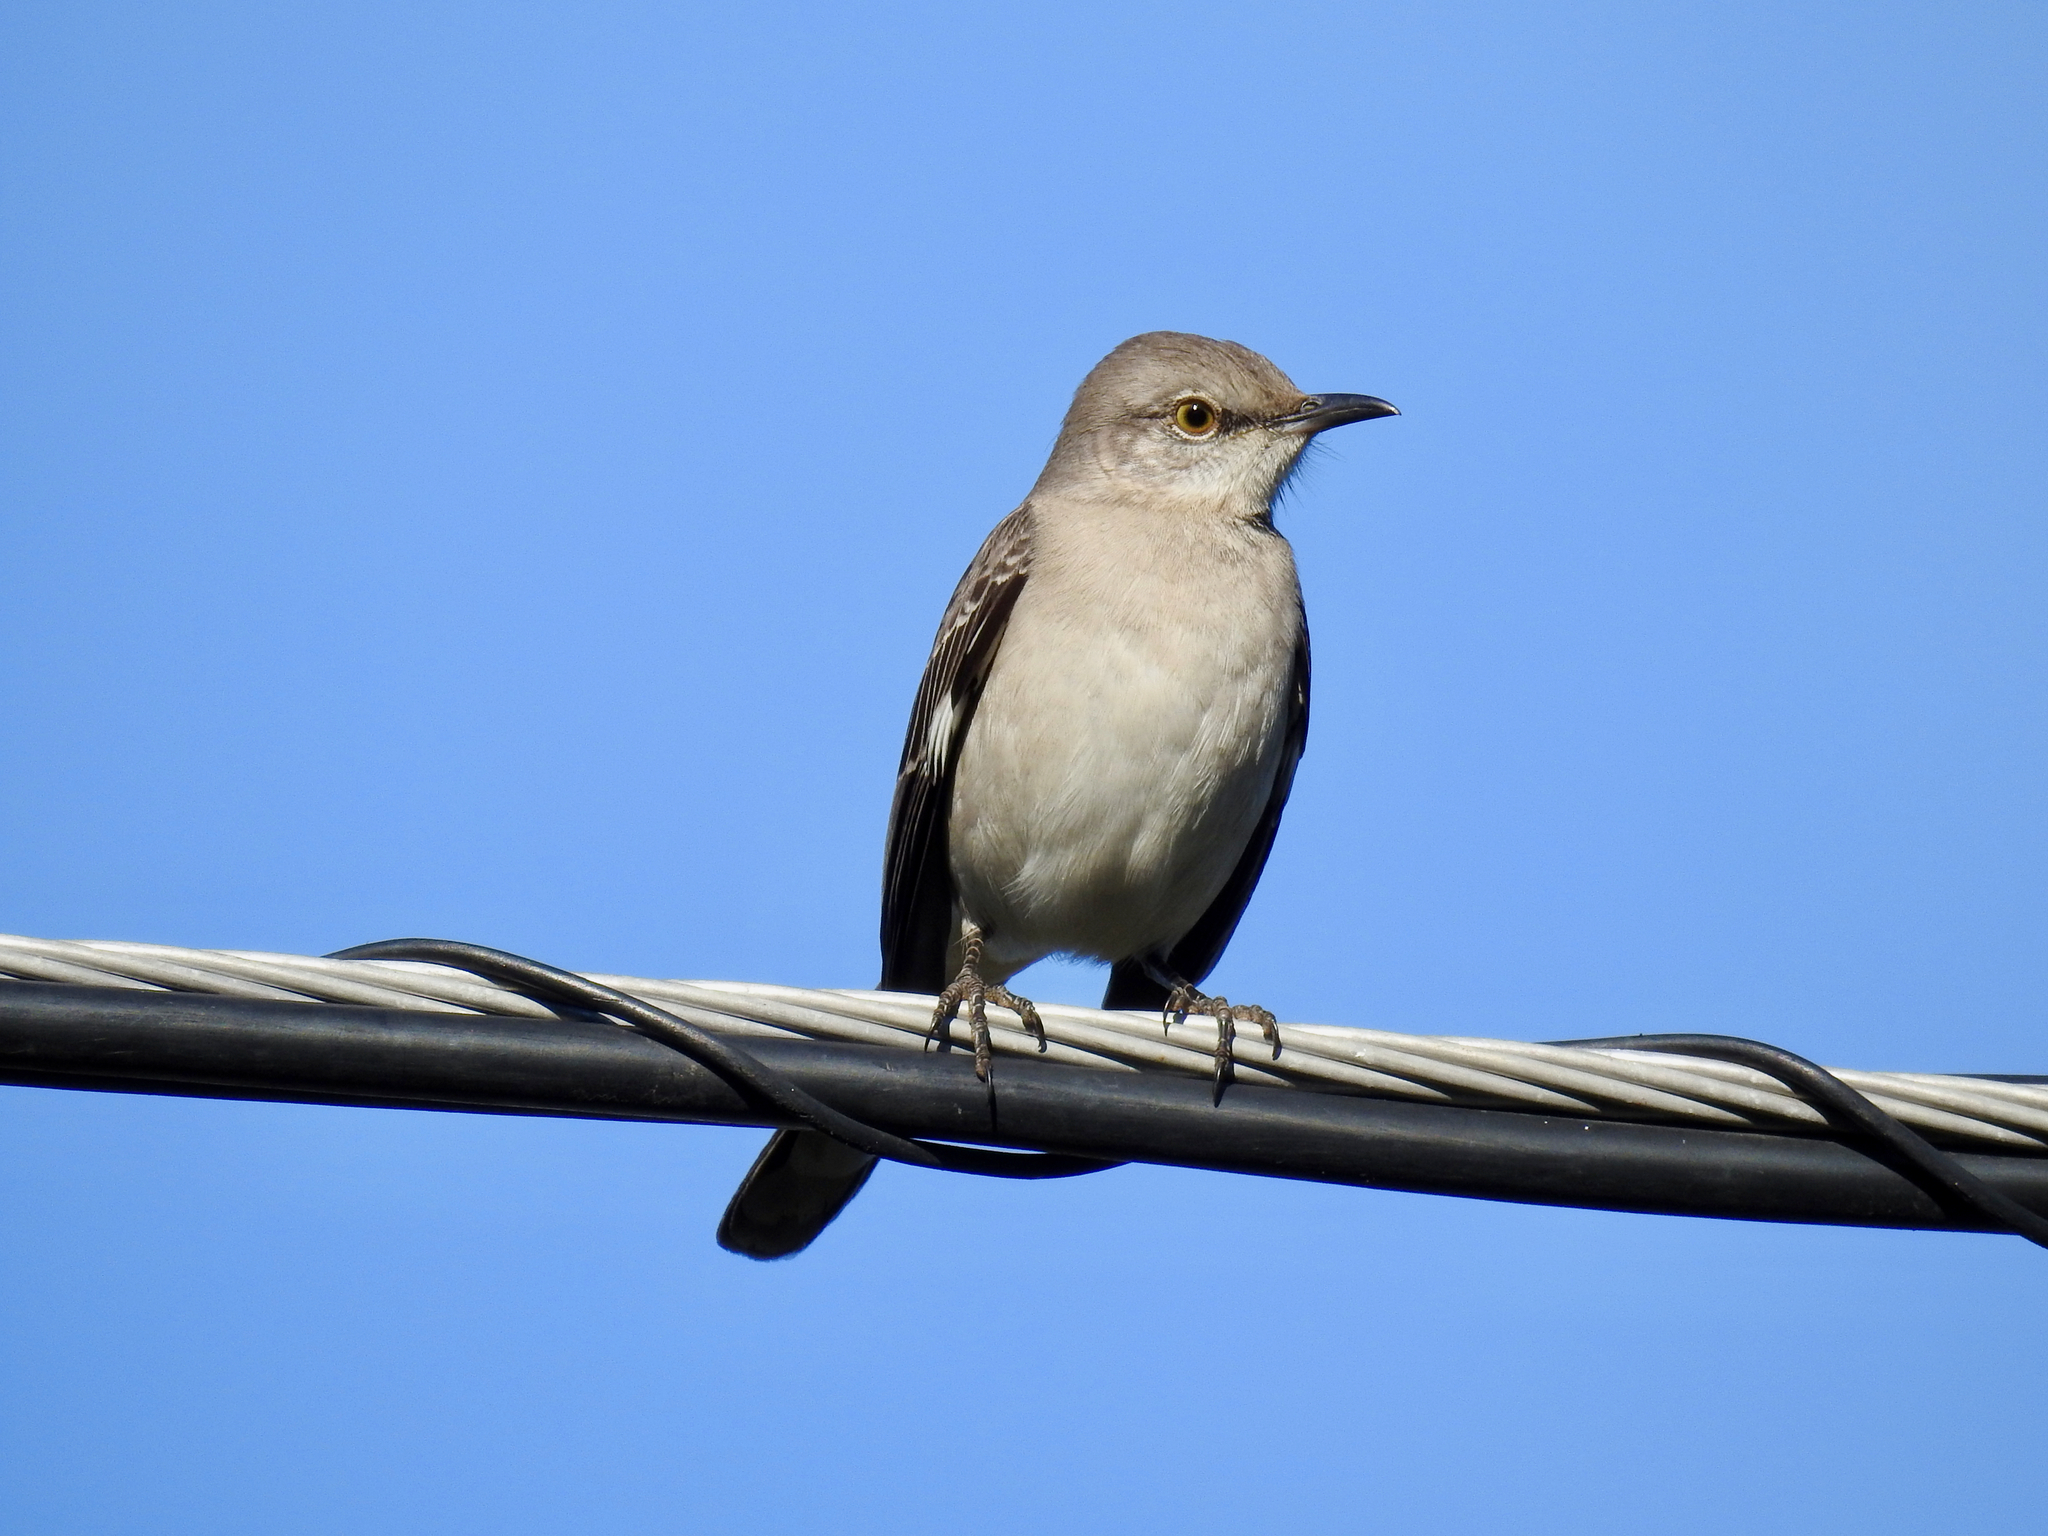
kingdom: Animalia
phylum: Chordata
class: Aves
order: Passeriformes
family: Mimidae
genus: Mimus
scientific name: Mimus polyglottos
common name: Northern mockingbird
